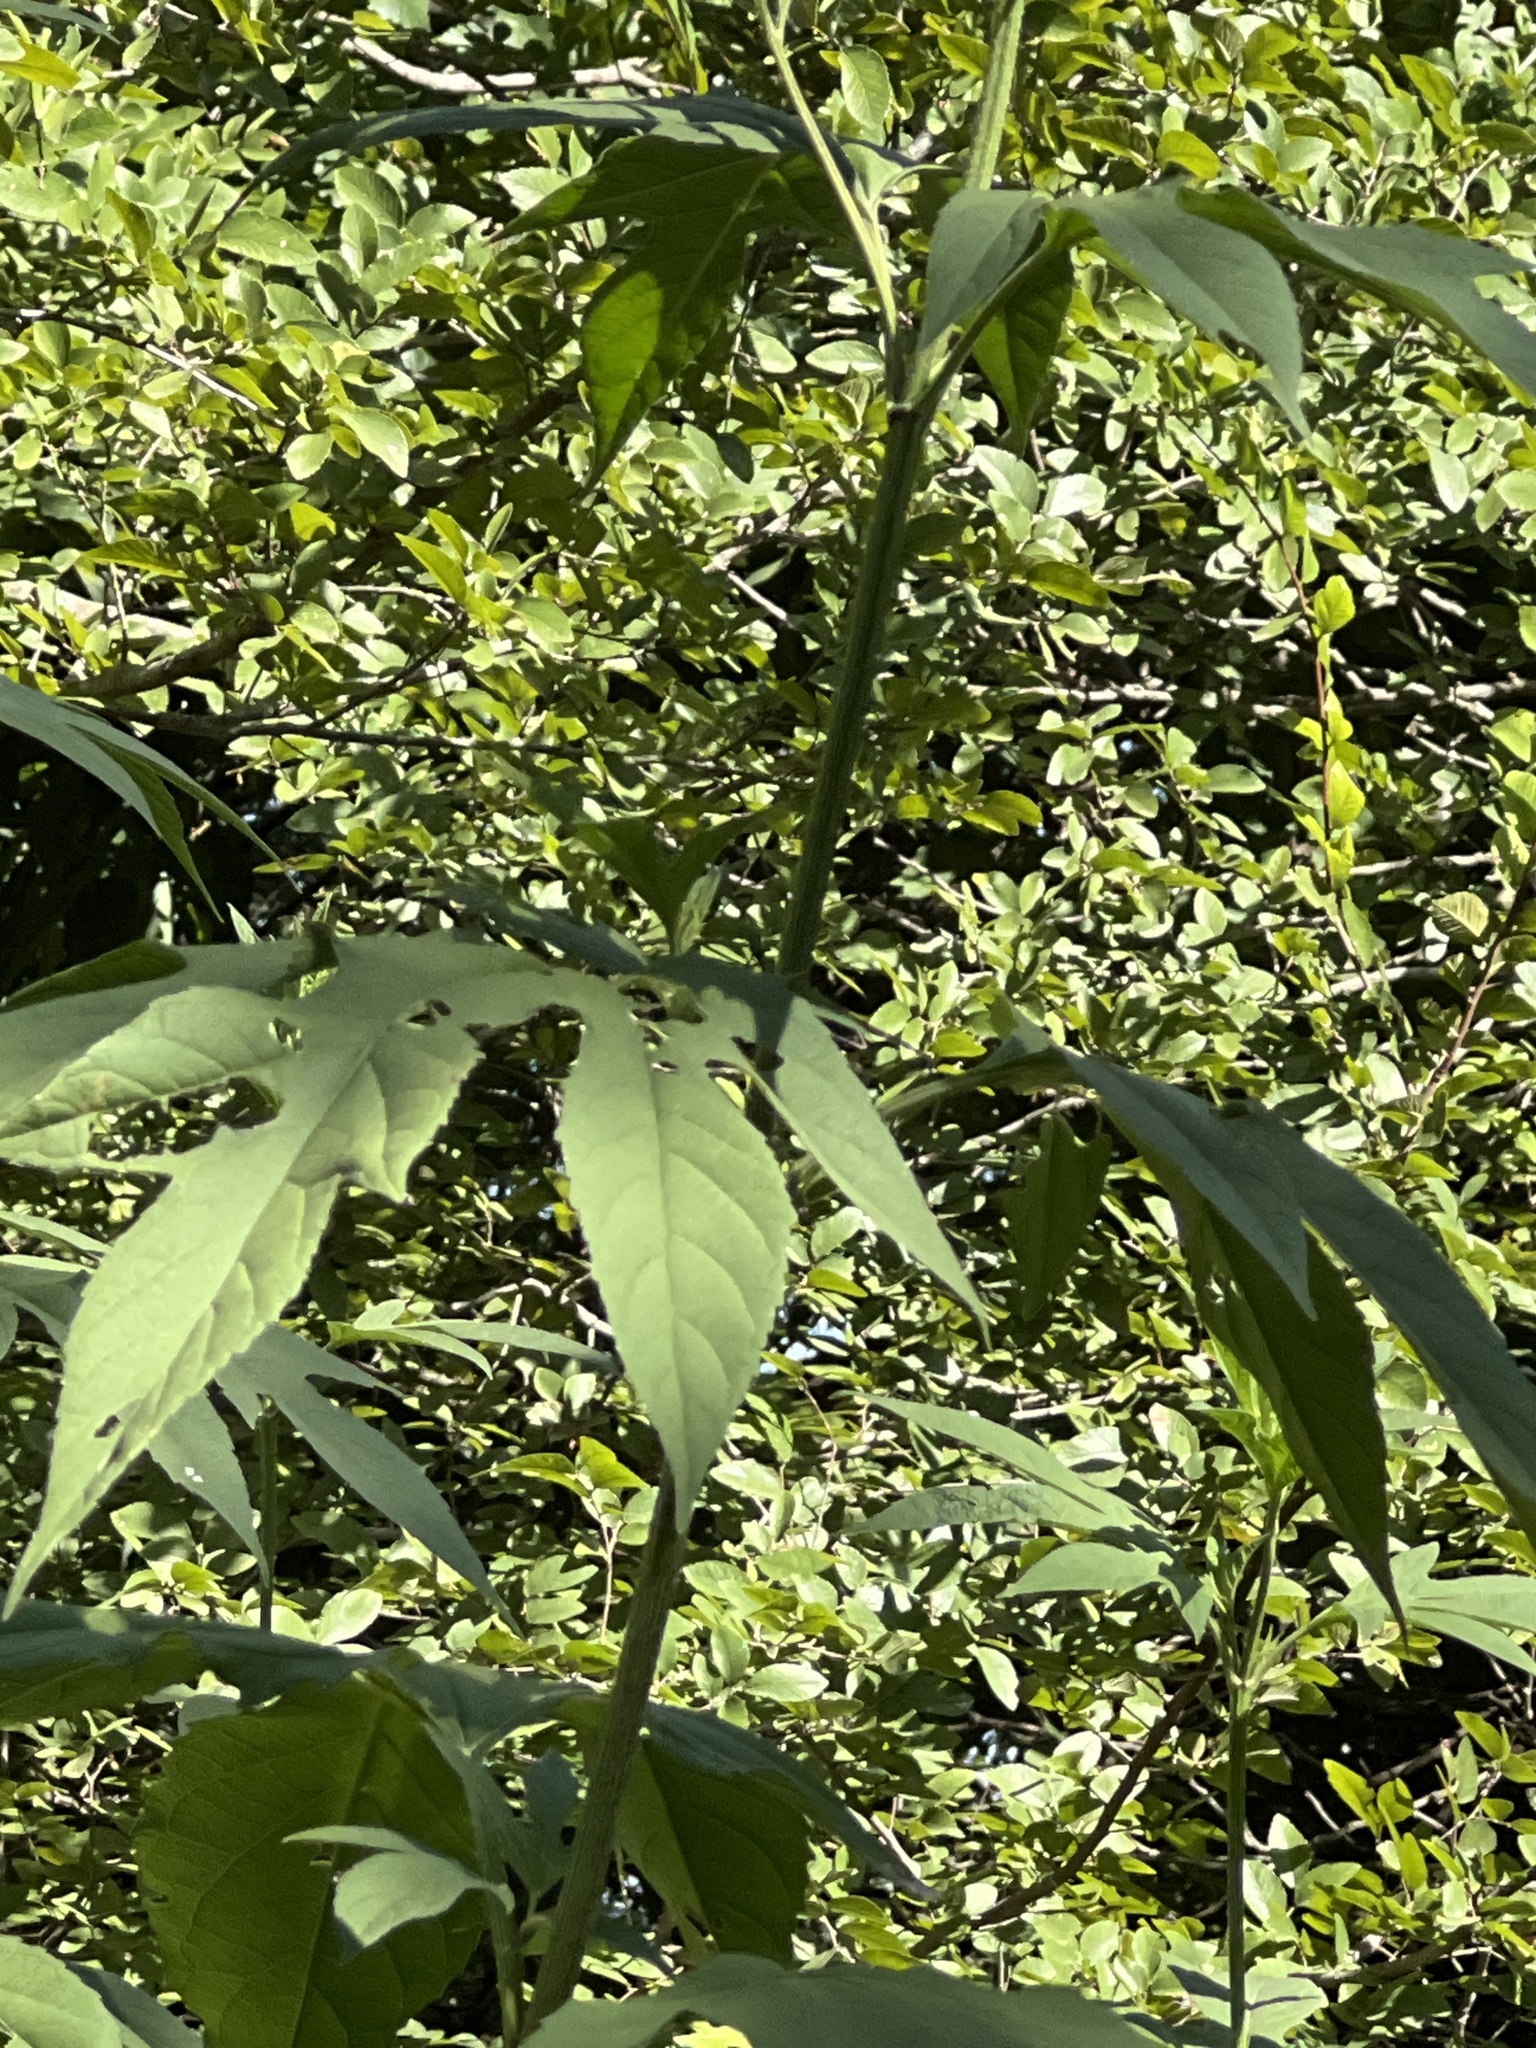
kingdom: Plantae
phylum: Tracheophyta
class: Magnoliopsida
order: Asterales
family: Asteraceae
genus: Ambrosia
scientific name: Ambrosia trifida
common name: Giant ragweed
